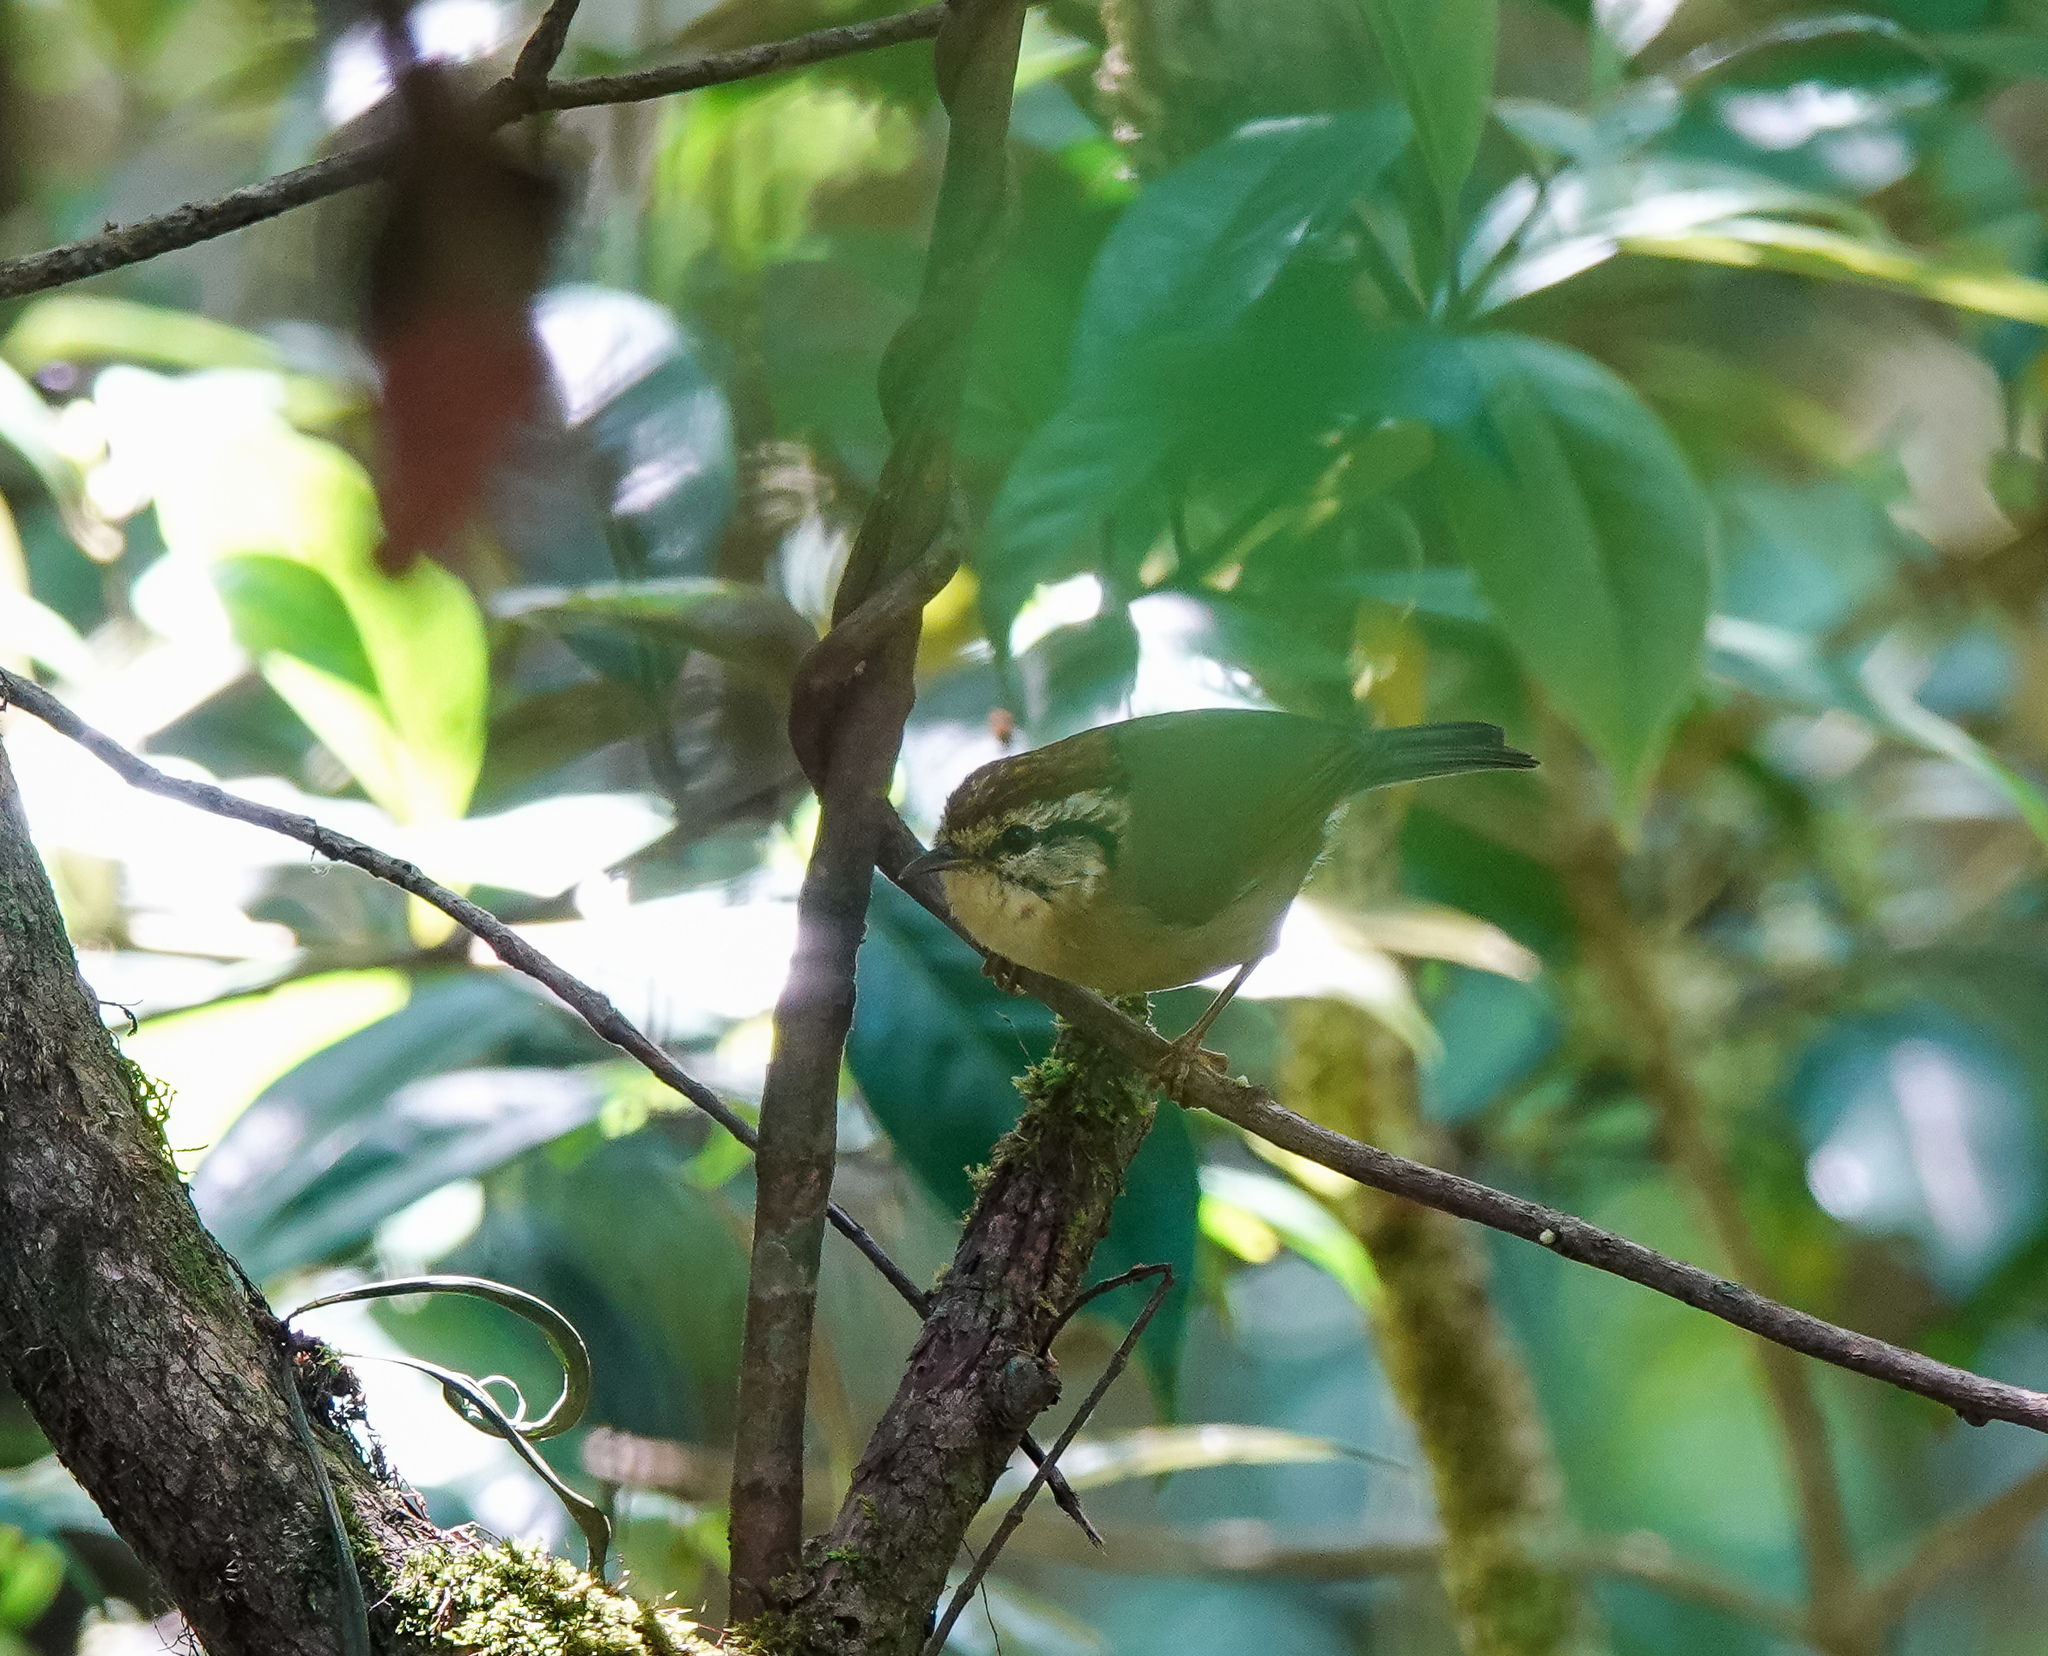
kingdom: Animalia
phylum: Chordata
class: Aves
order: Passeriformes
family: Pellorneidae
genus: Alcippe
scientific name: Alcippe castaneceps
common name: Rufous-winged fulvetta
